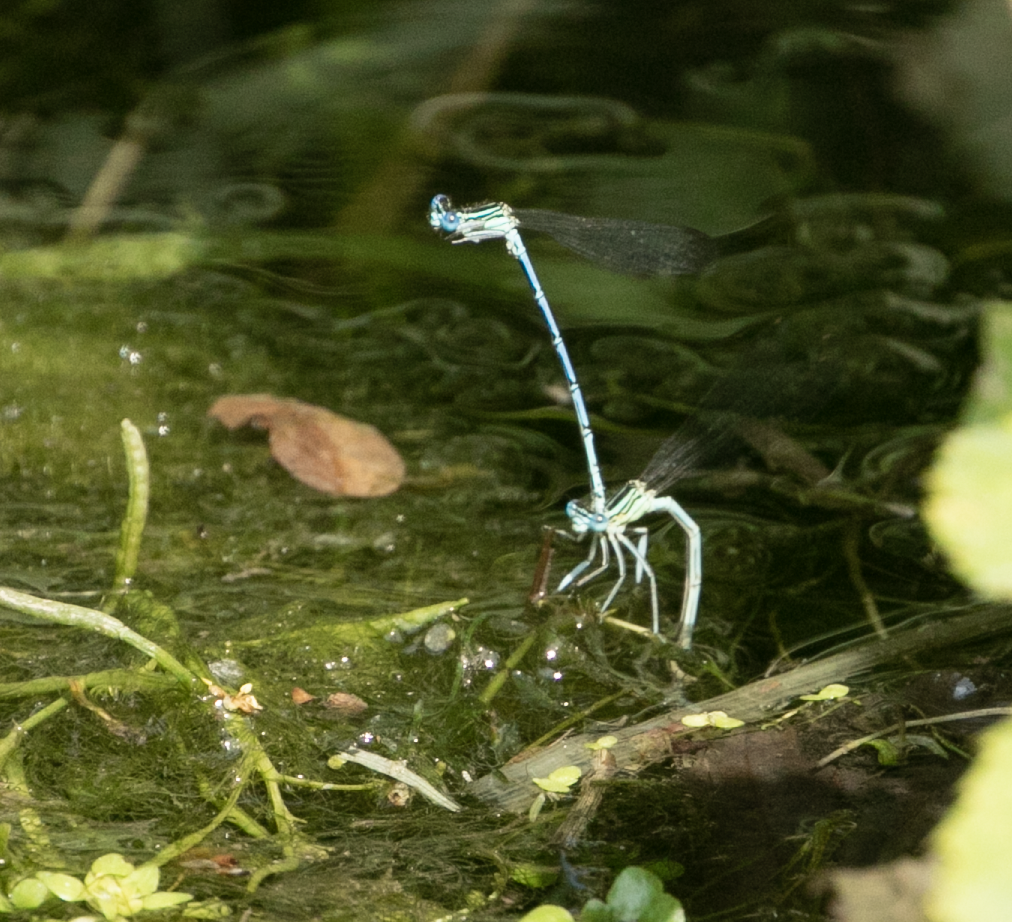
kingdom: Animalia
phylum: Arthropoda
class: Insecta
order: Odonata
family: Platycnemididae
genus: Platycnemis
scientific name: Platycnemis pennipes
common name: White-legged damselfly
